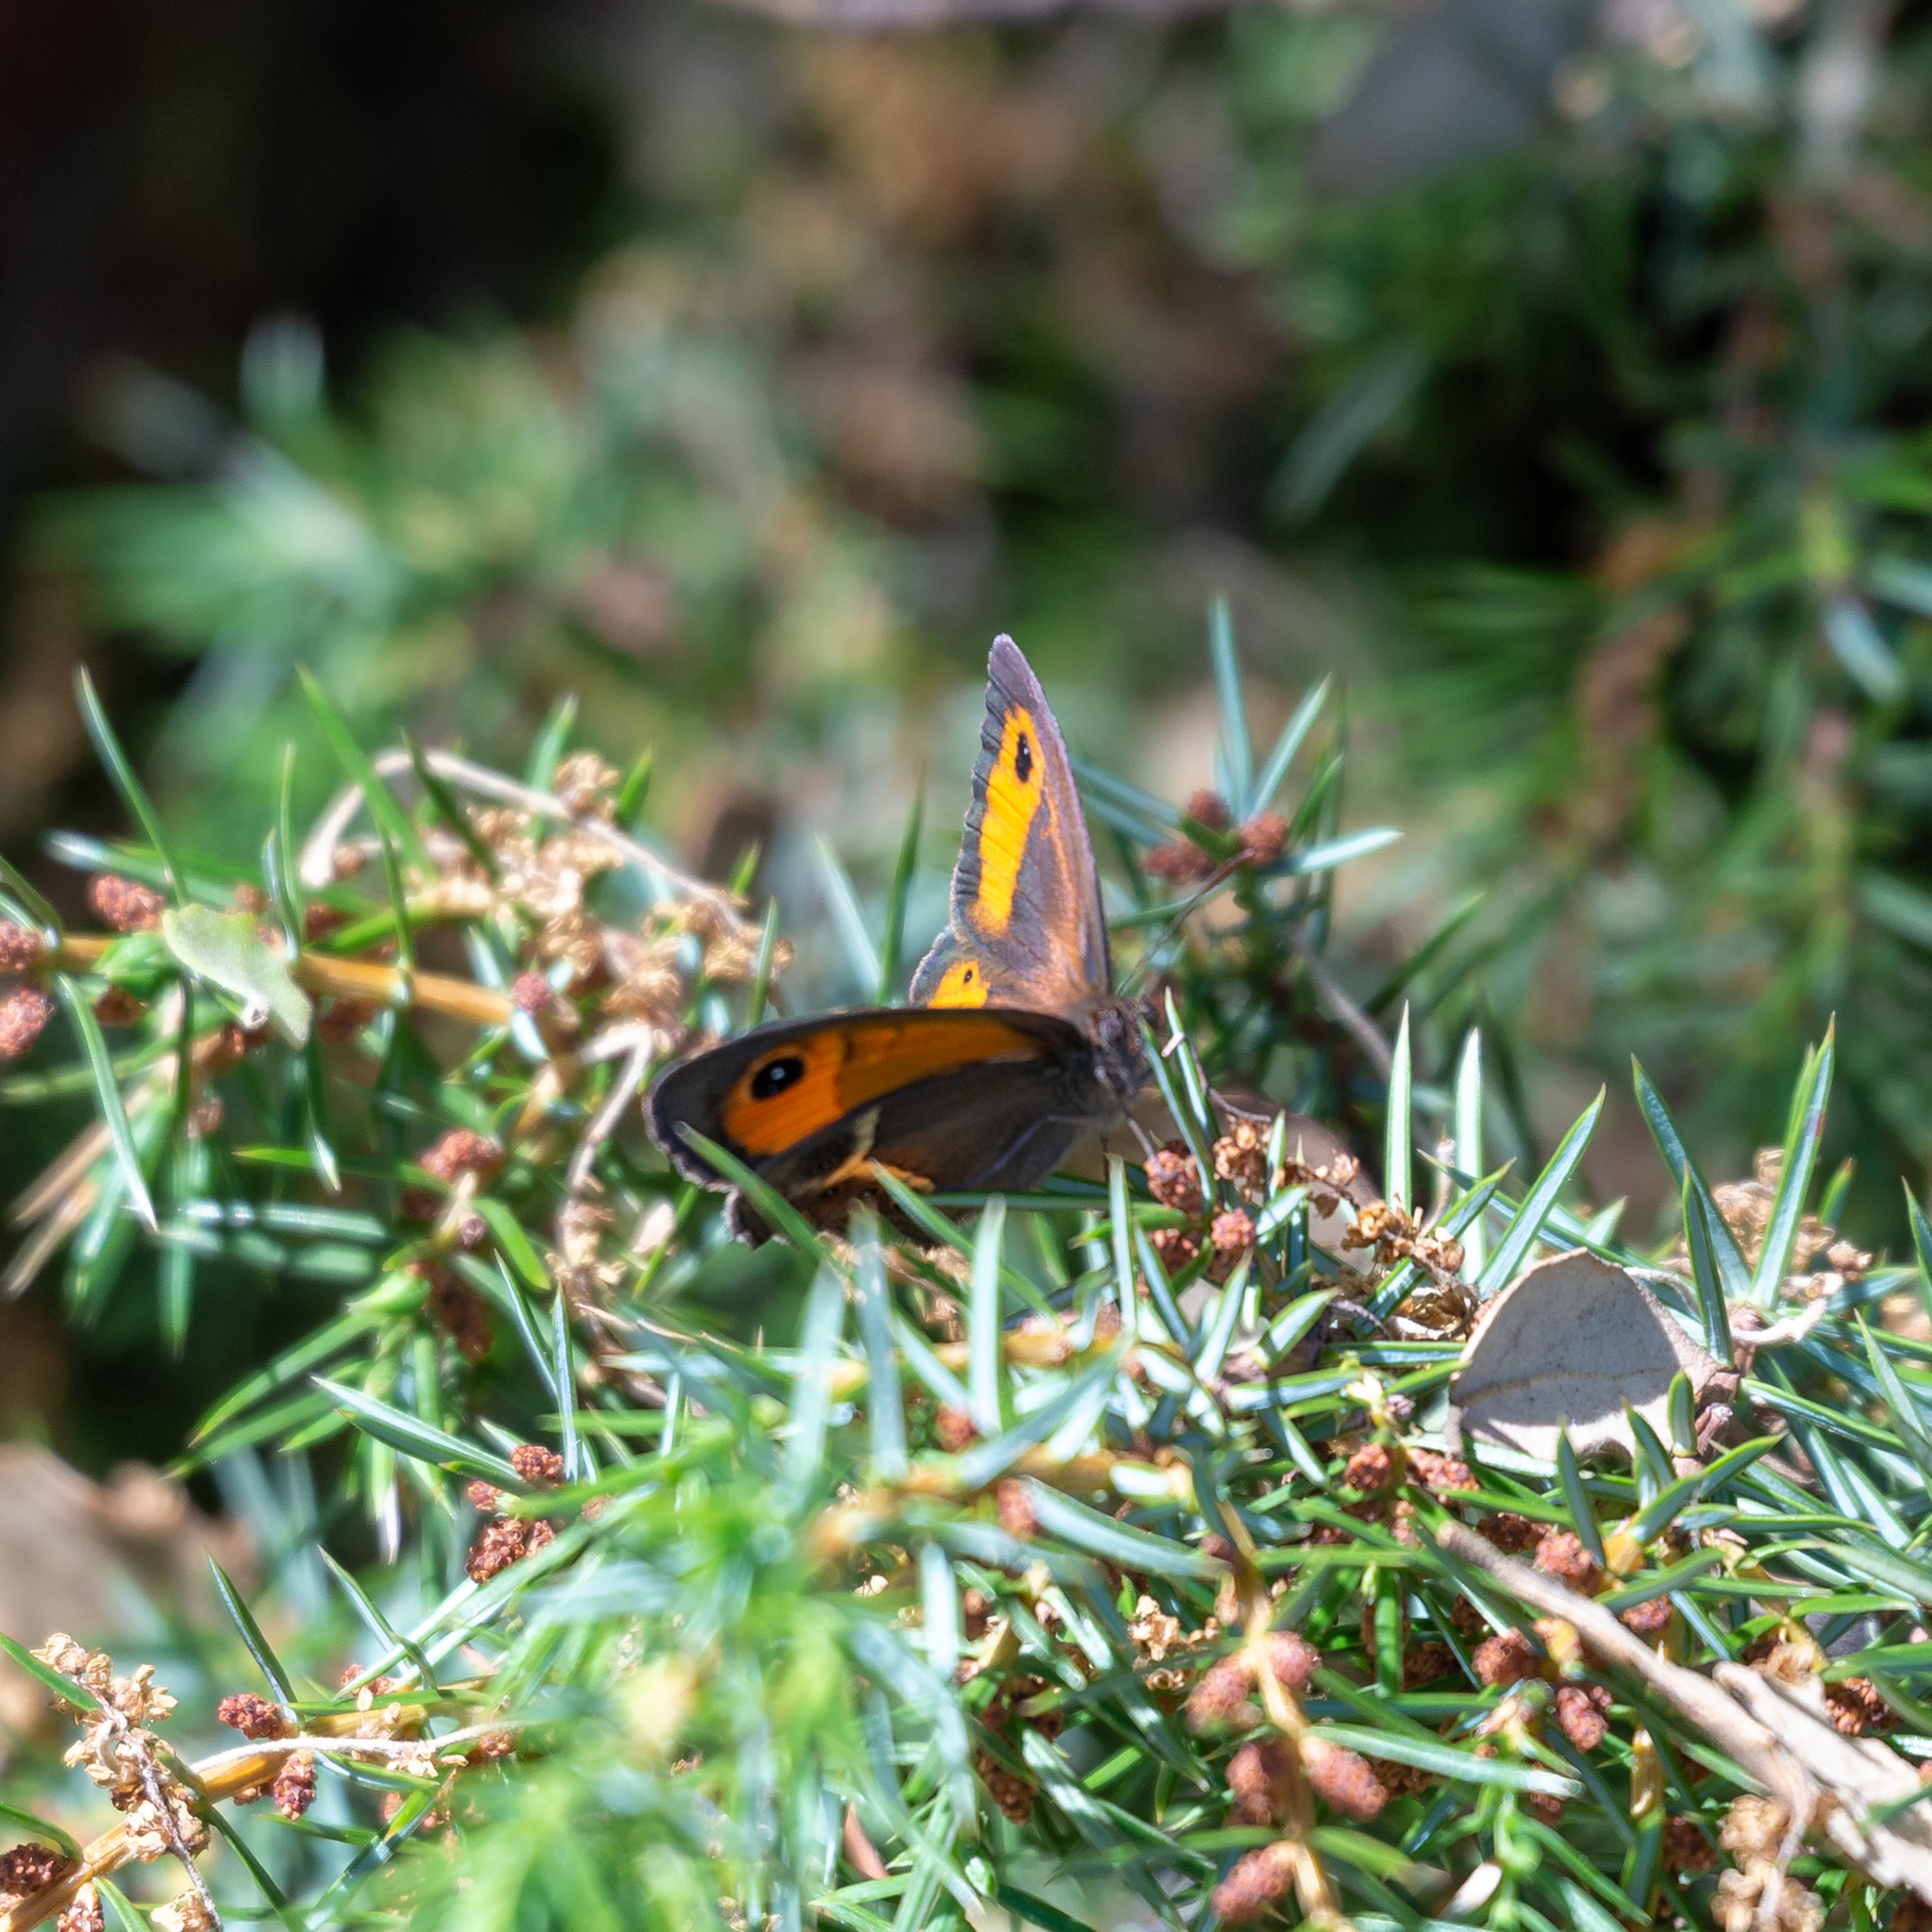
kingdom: Animalia
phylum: Arthropoda
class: Insecta
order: Lepidoptera
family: Nymphalidae
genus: Pyronia
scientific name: Pyronia bathseba
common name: Spanish gatekeeper
